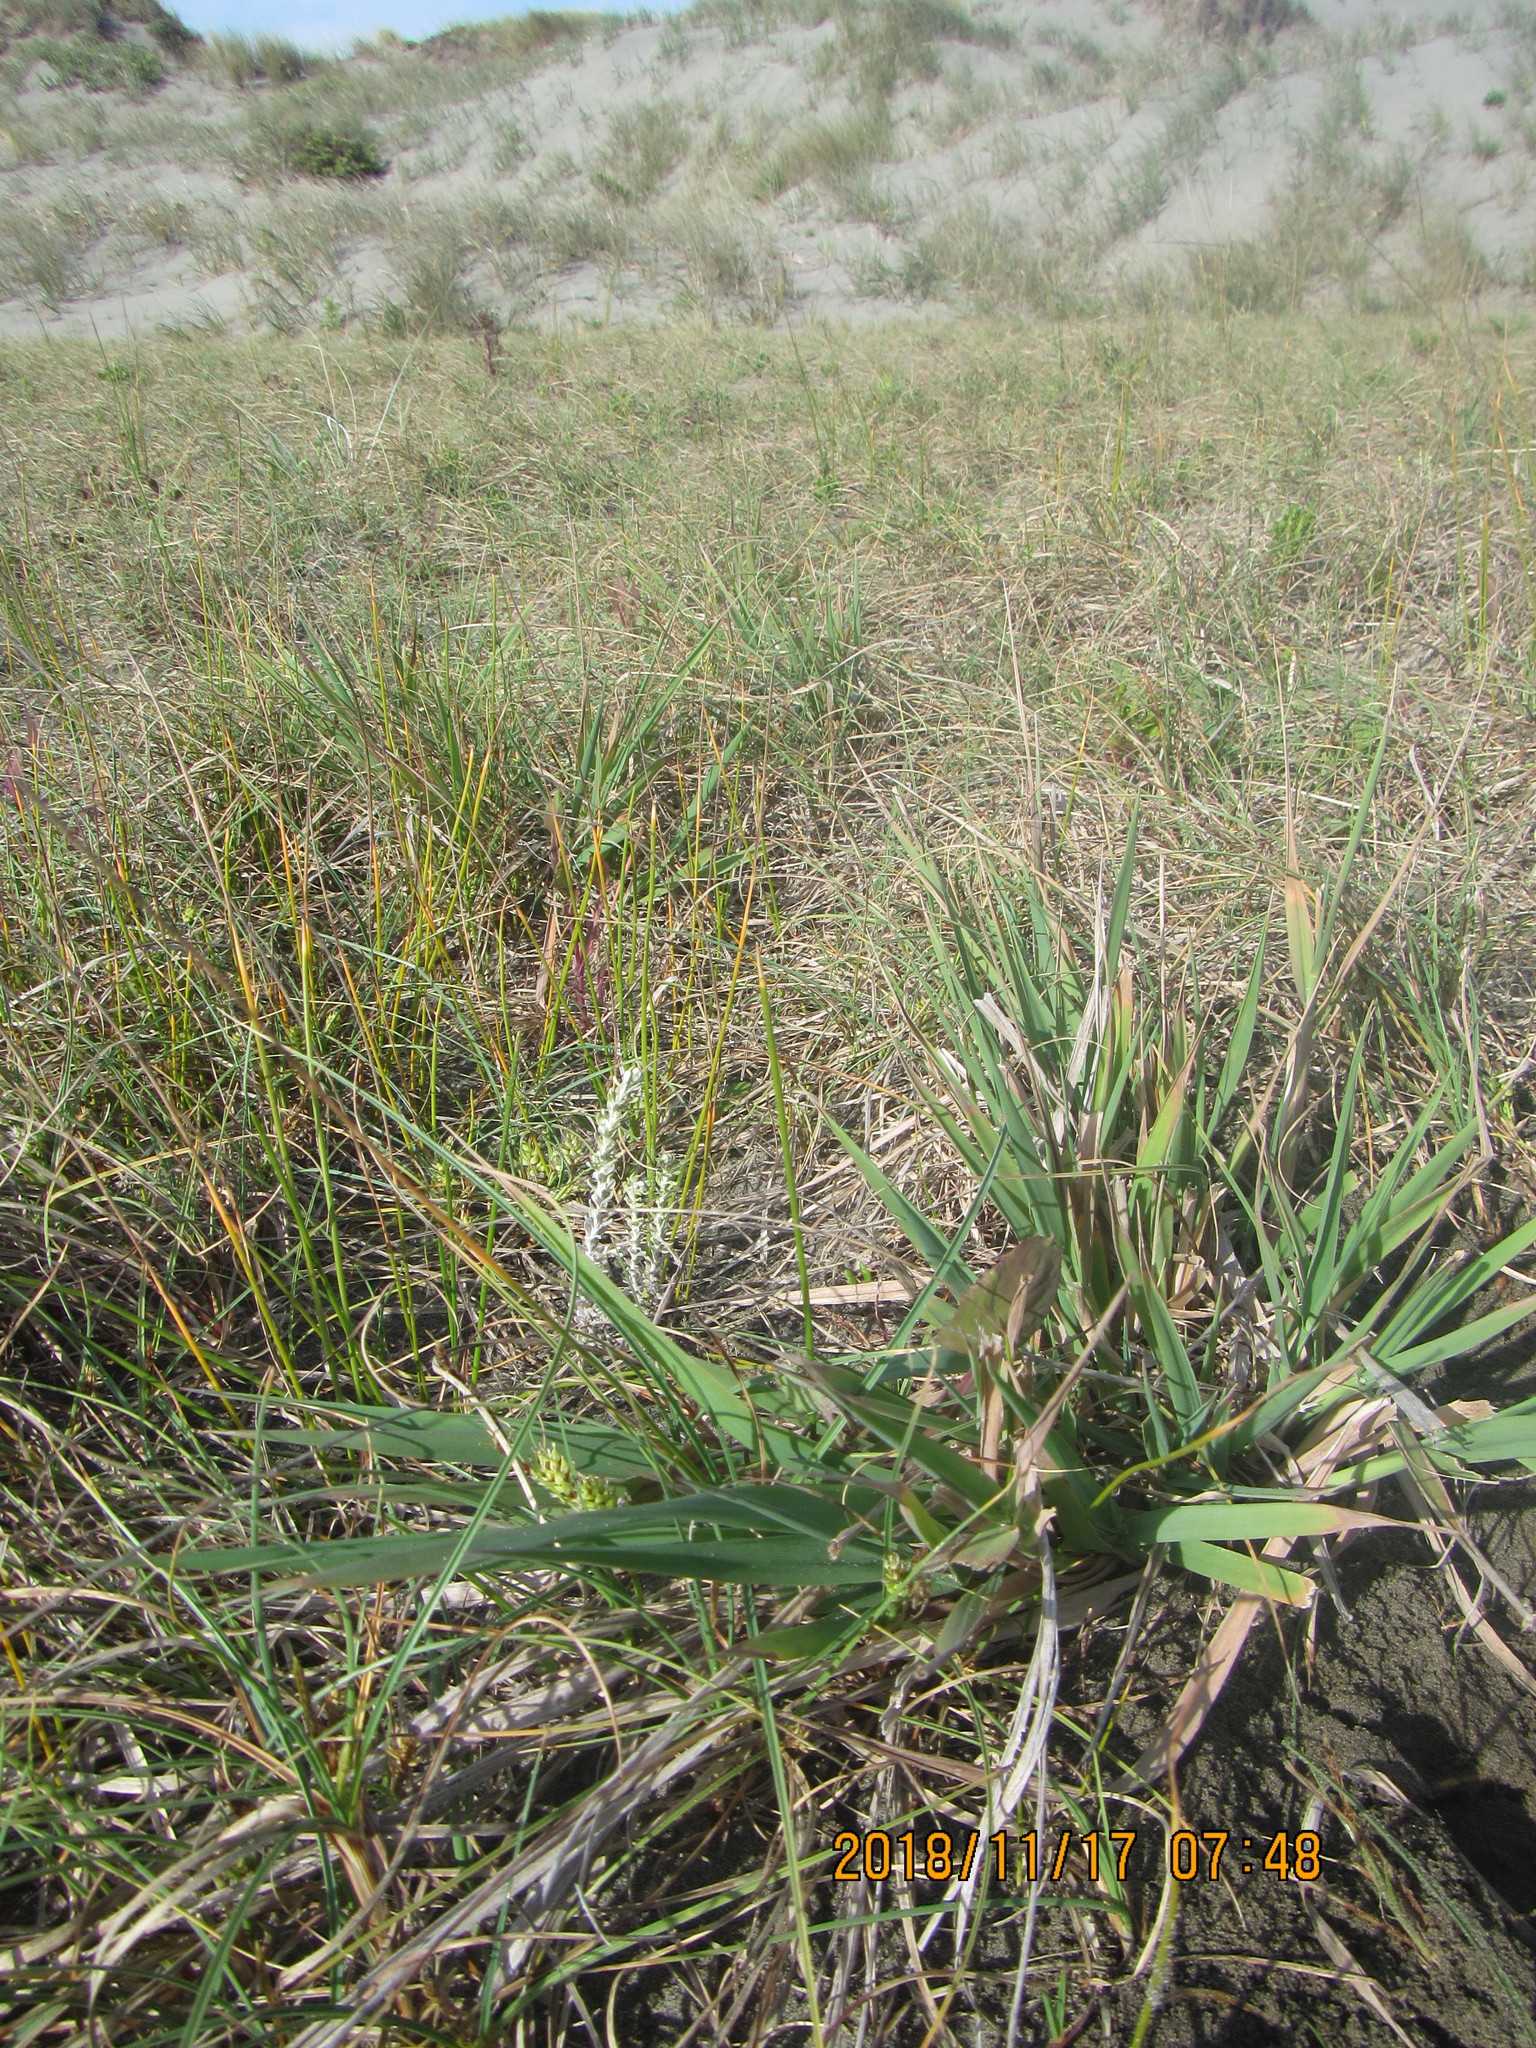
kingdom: Plantae
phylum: Tracheophyta
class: Magnoliopsida
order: Asterales
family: Asteraceae
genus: Ozothamnus
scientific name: Ozothamnus leptophyllus
